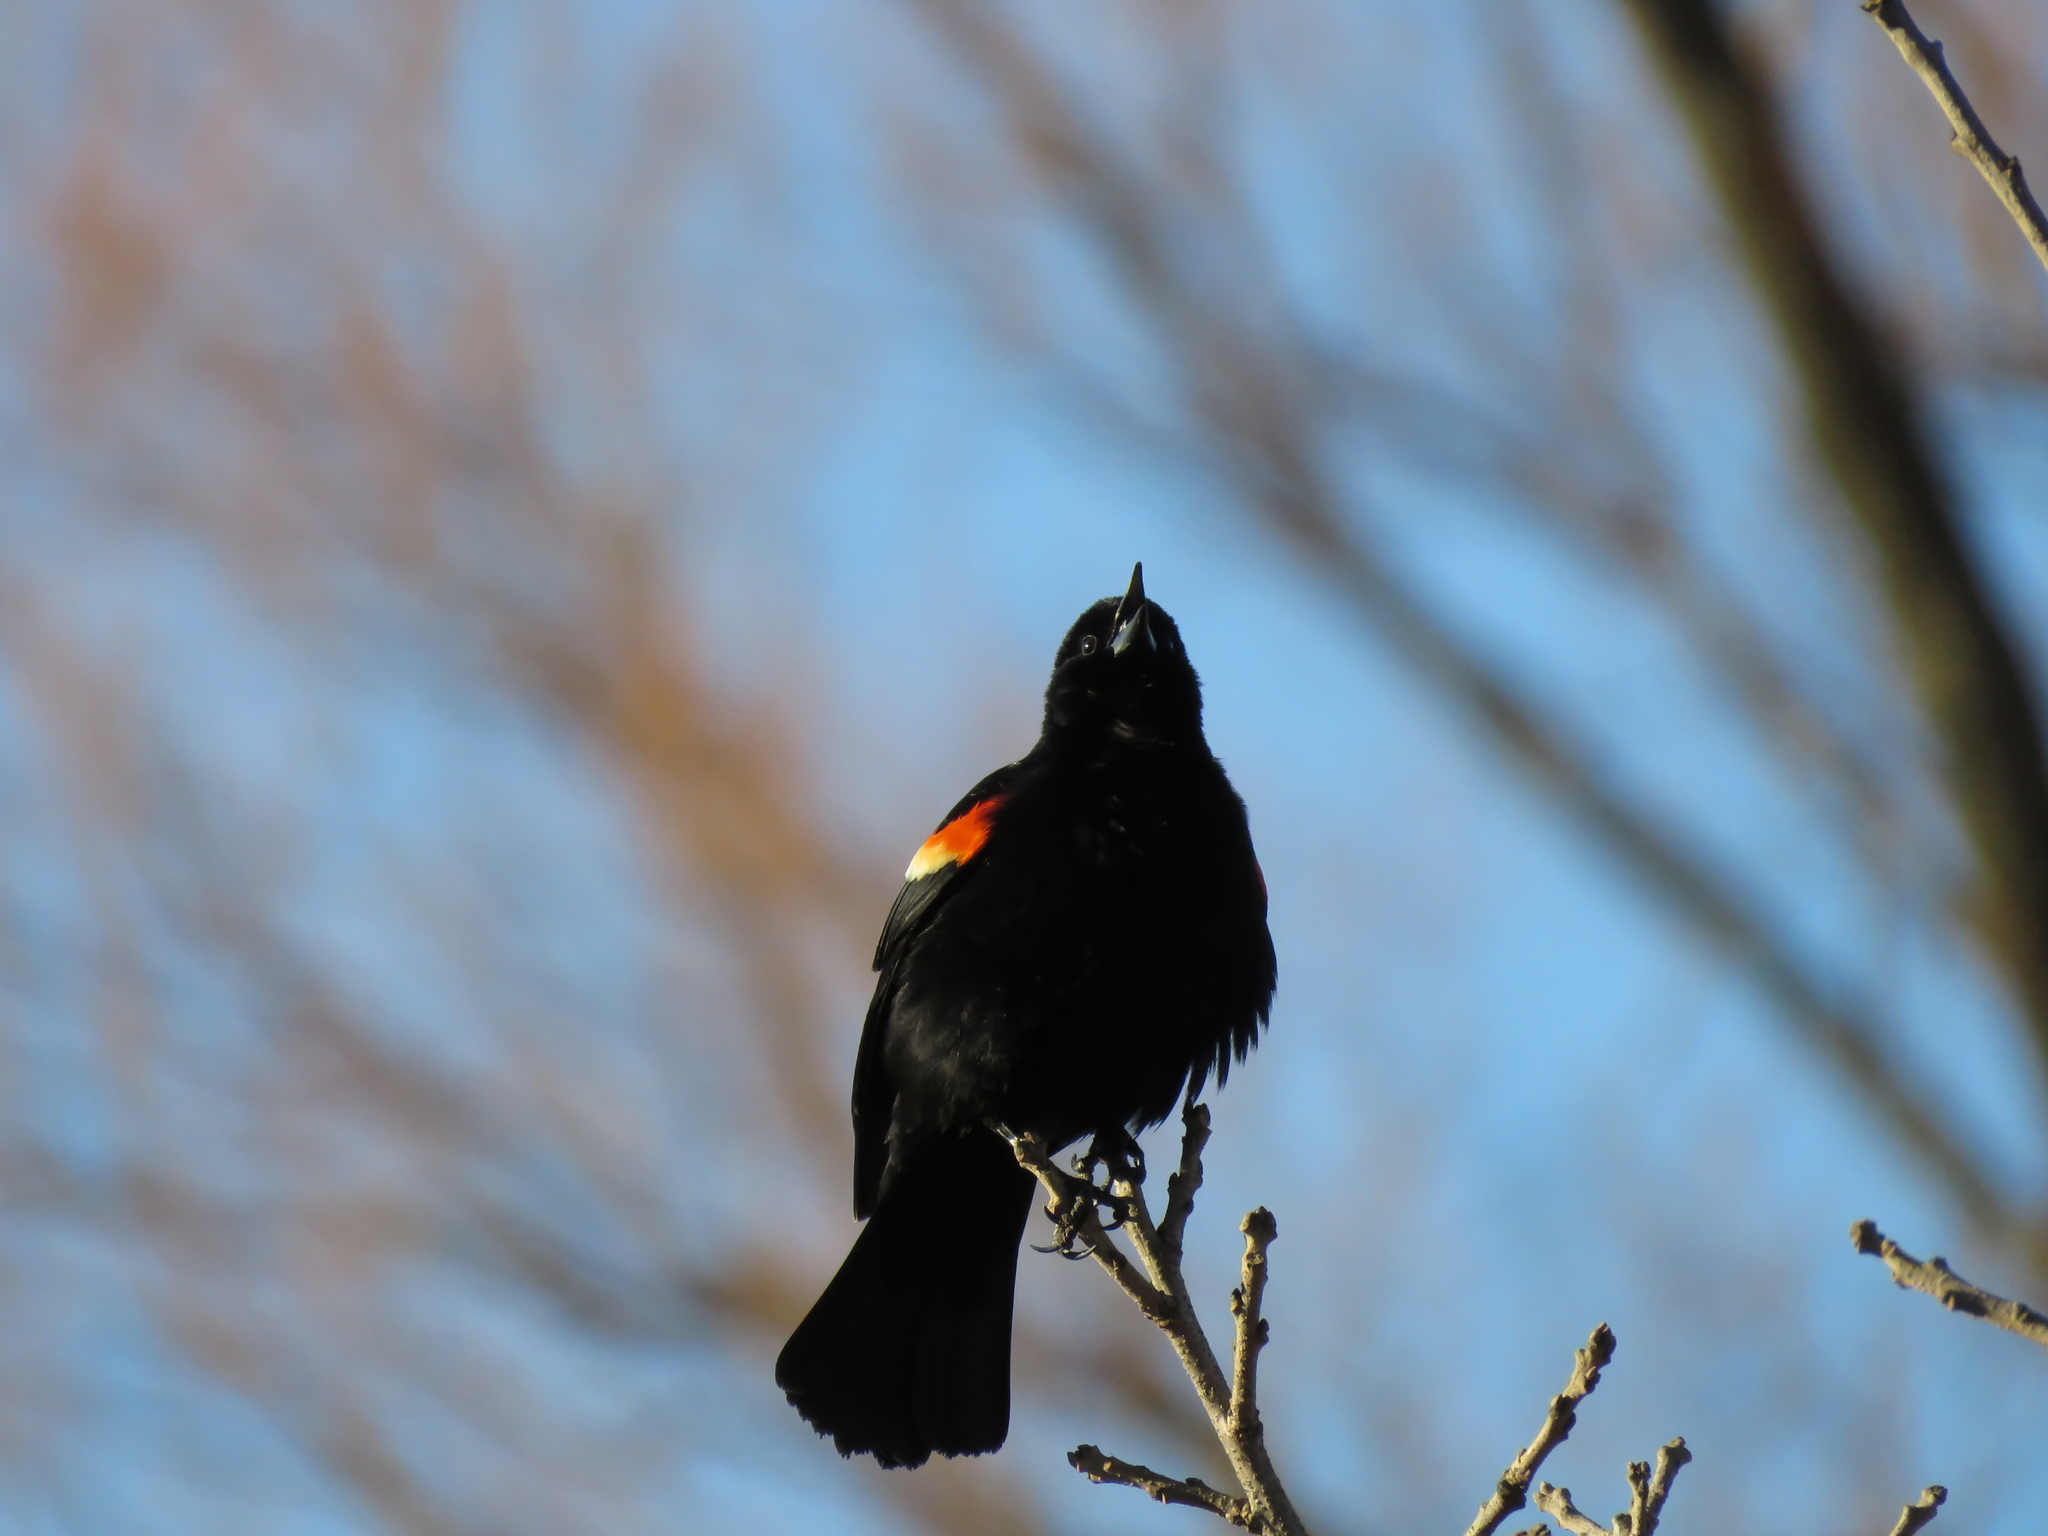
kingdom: Animalia
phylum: Chordata
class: Aves
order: Passeriformes
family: Icteridae
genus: Agelaius
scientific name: Agelaius phoeniceus
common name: Red-winged blackbird
